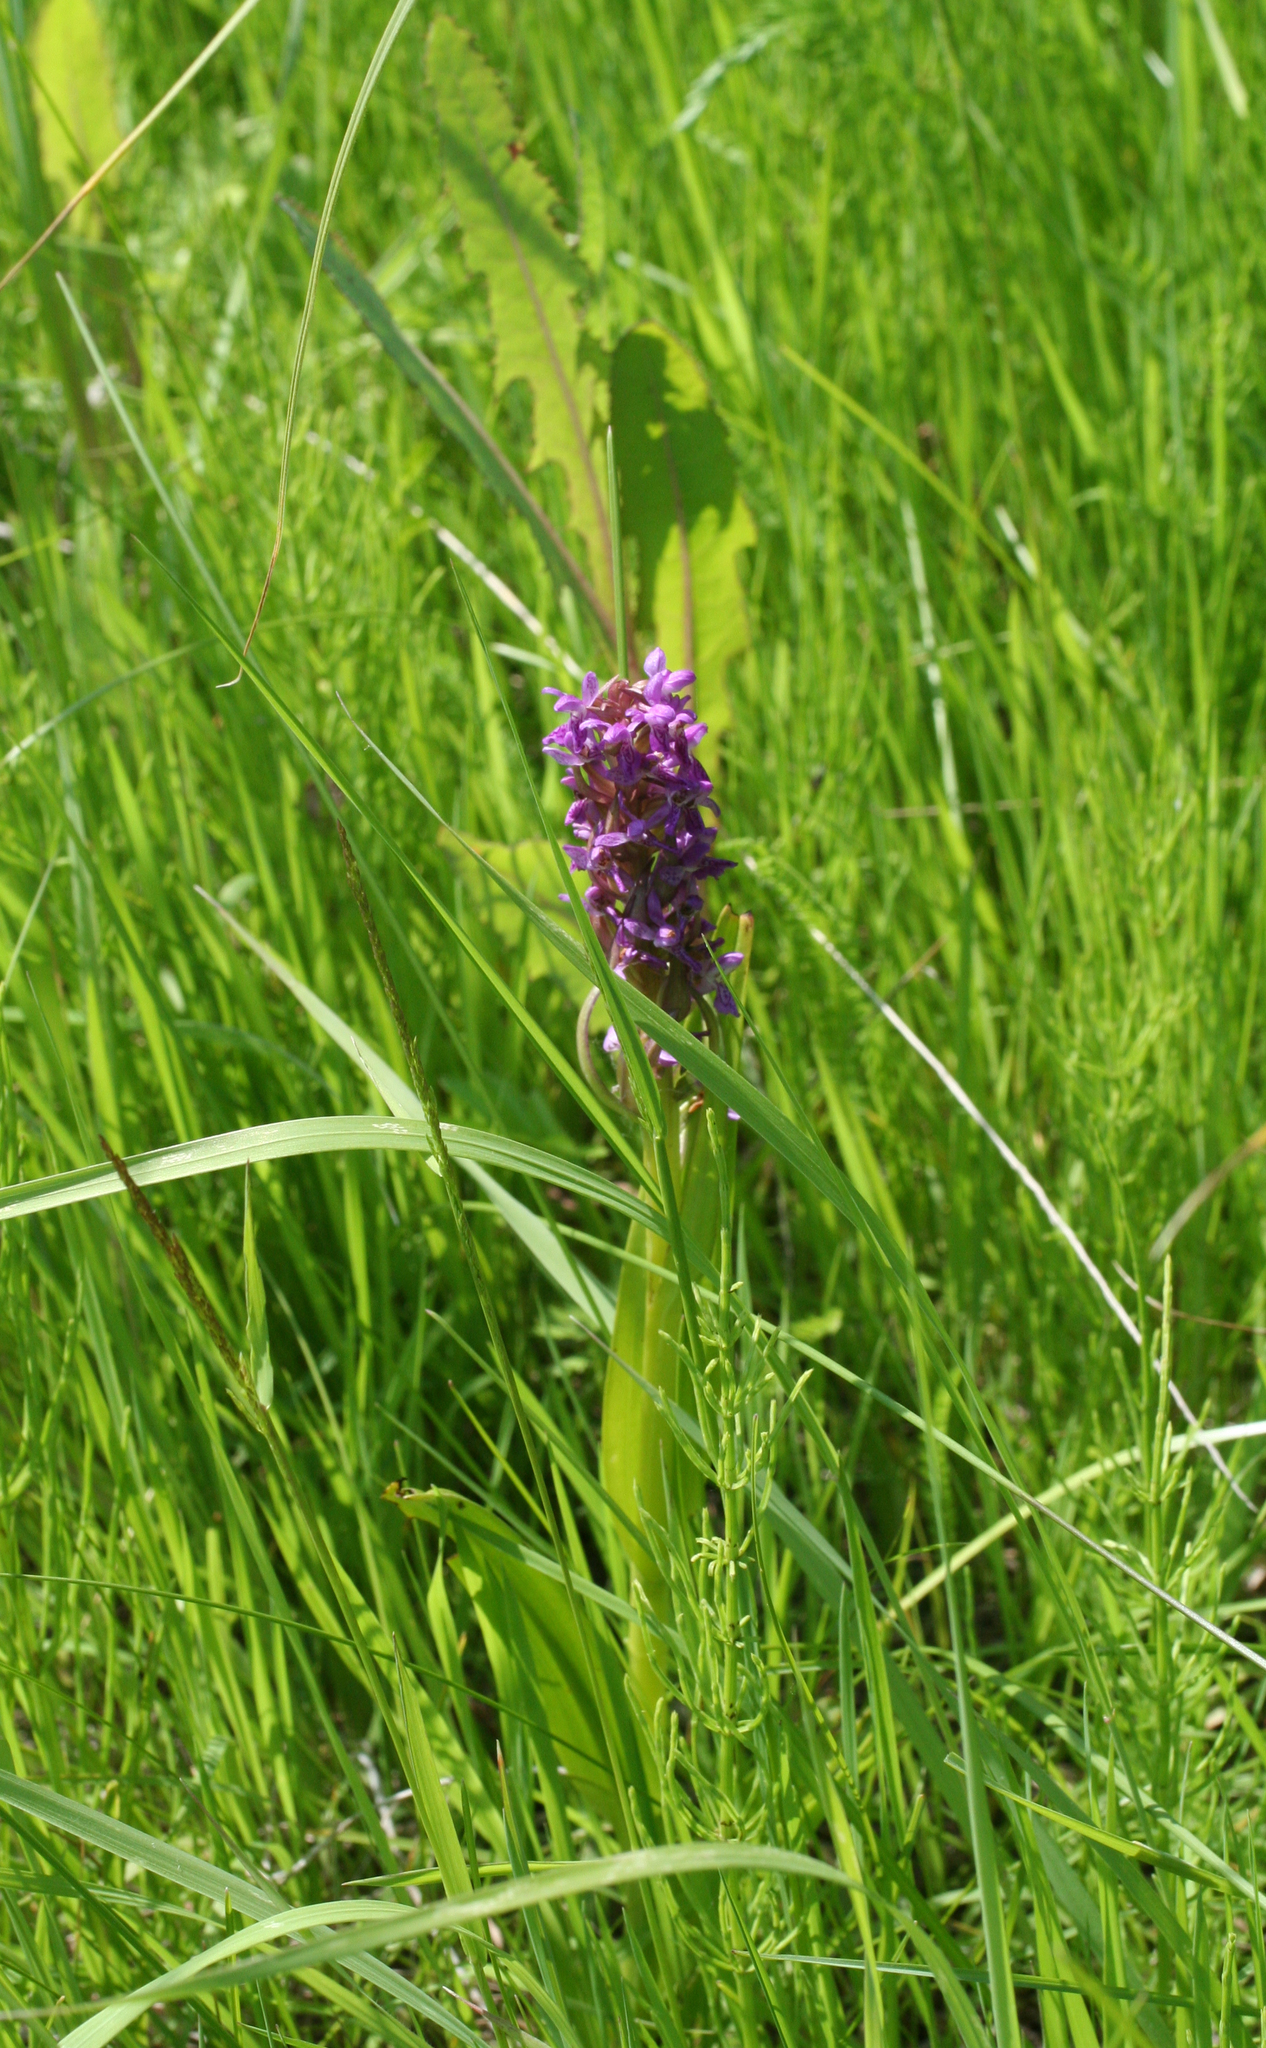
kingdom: Plantae
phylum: Tracheophyta
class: Liliopsida
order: Asparagales
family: Orchidaceae
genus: Dactylorhiza
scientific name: Dactylorhiza incarnata
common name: Early marsh-orchid
